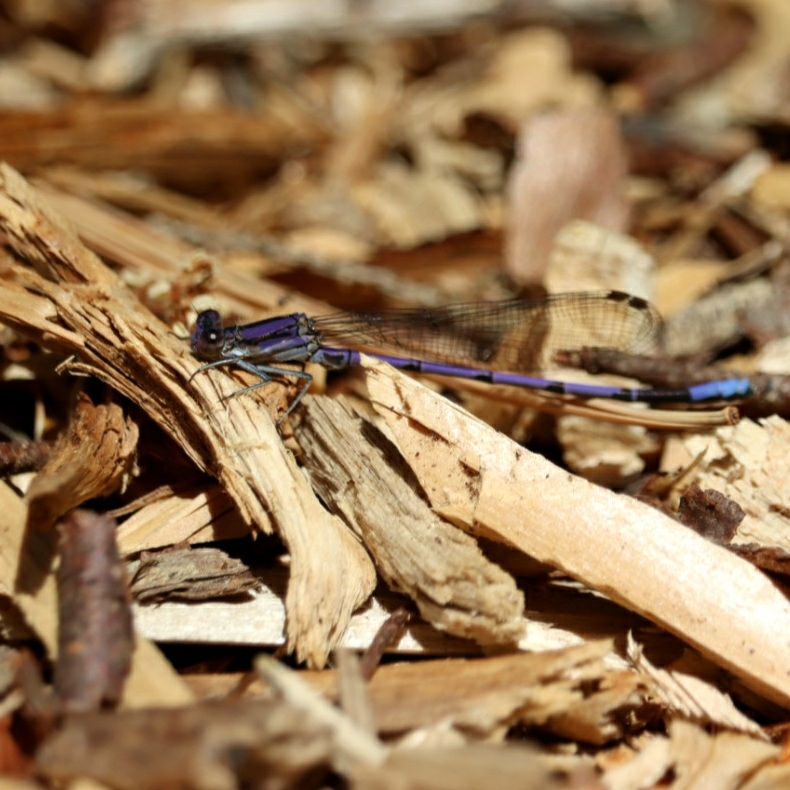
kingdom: Animalia
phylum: Arthropoda
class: Insecta
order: Odonata
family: Coenagrionidae
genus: Argia
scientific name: Argia fumipennis
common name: Variable dancer
